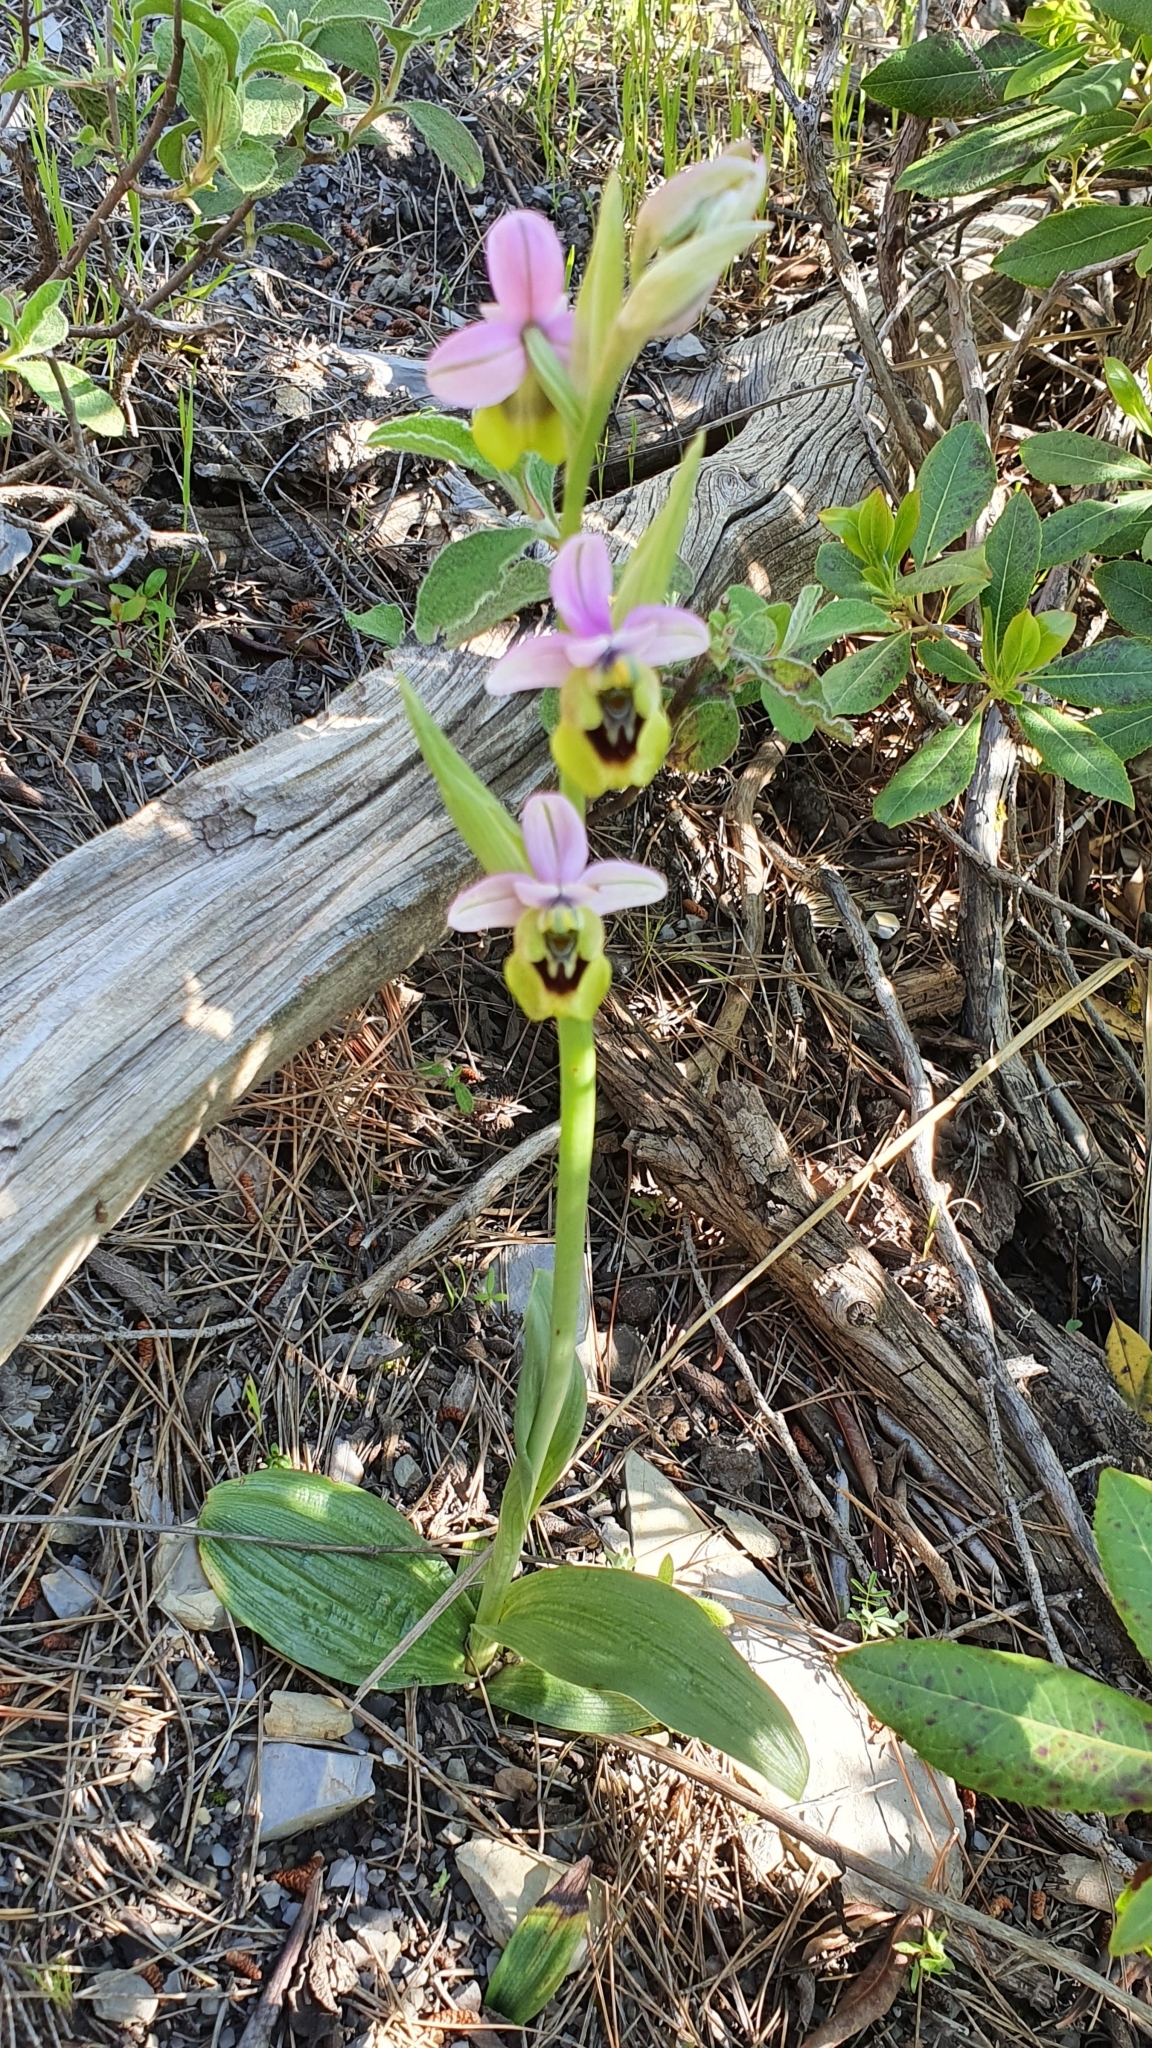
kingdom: Plantae
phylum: Tracheophyta
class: Liliopsida
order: Asparagales
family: Orchidaceae
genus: Ophrys
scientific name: Ophrys tenthredinifera
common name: Sawfly orchid
